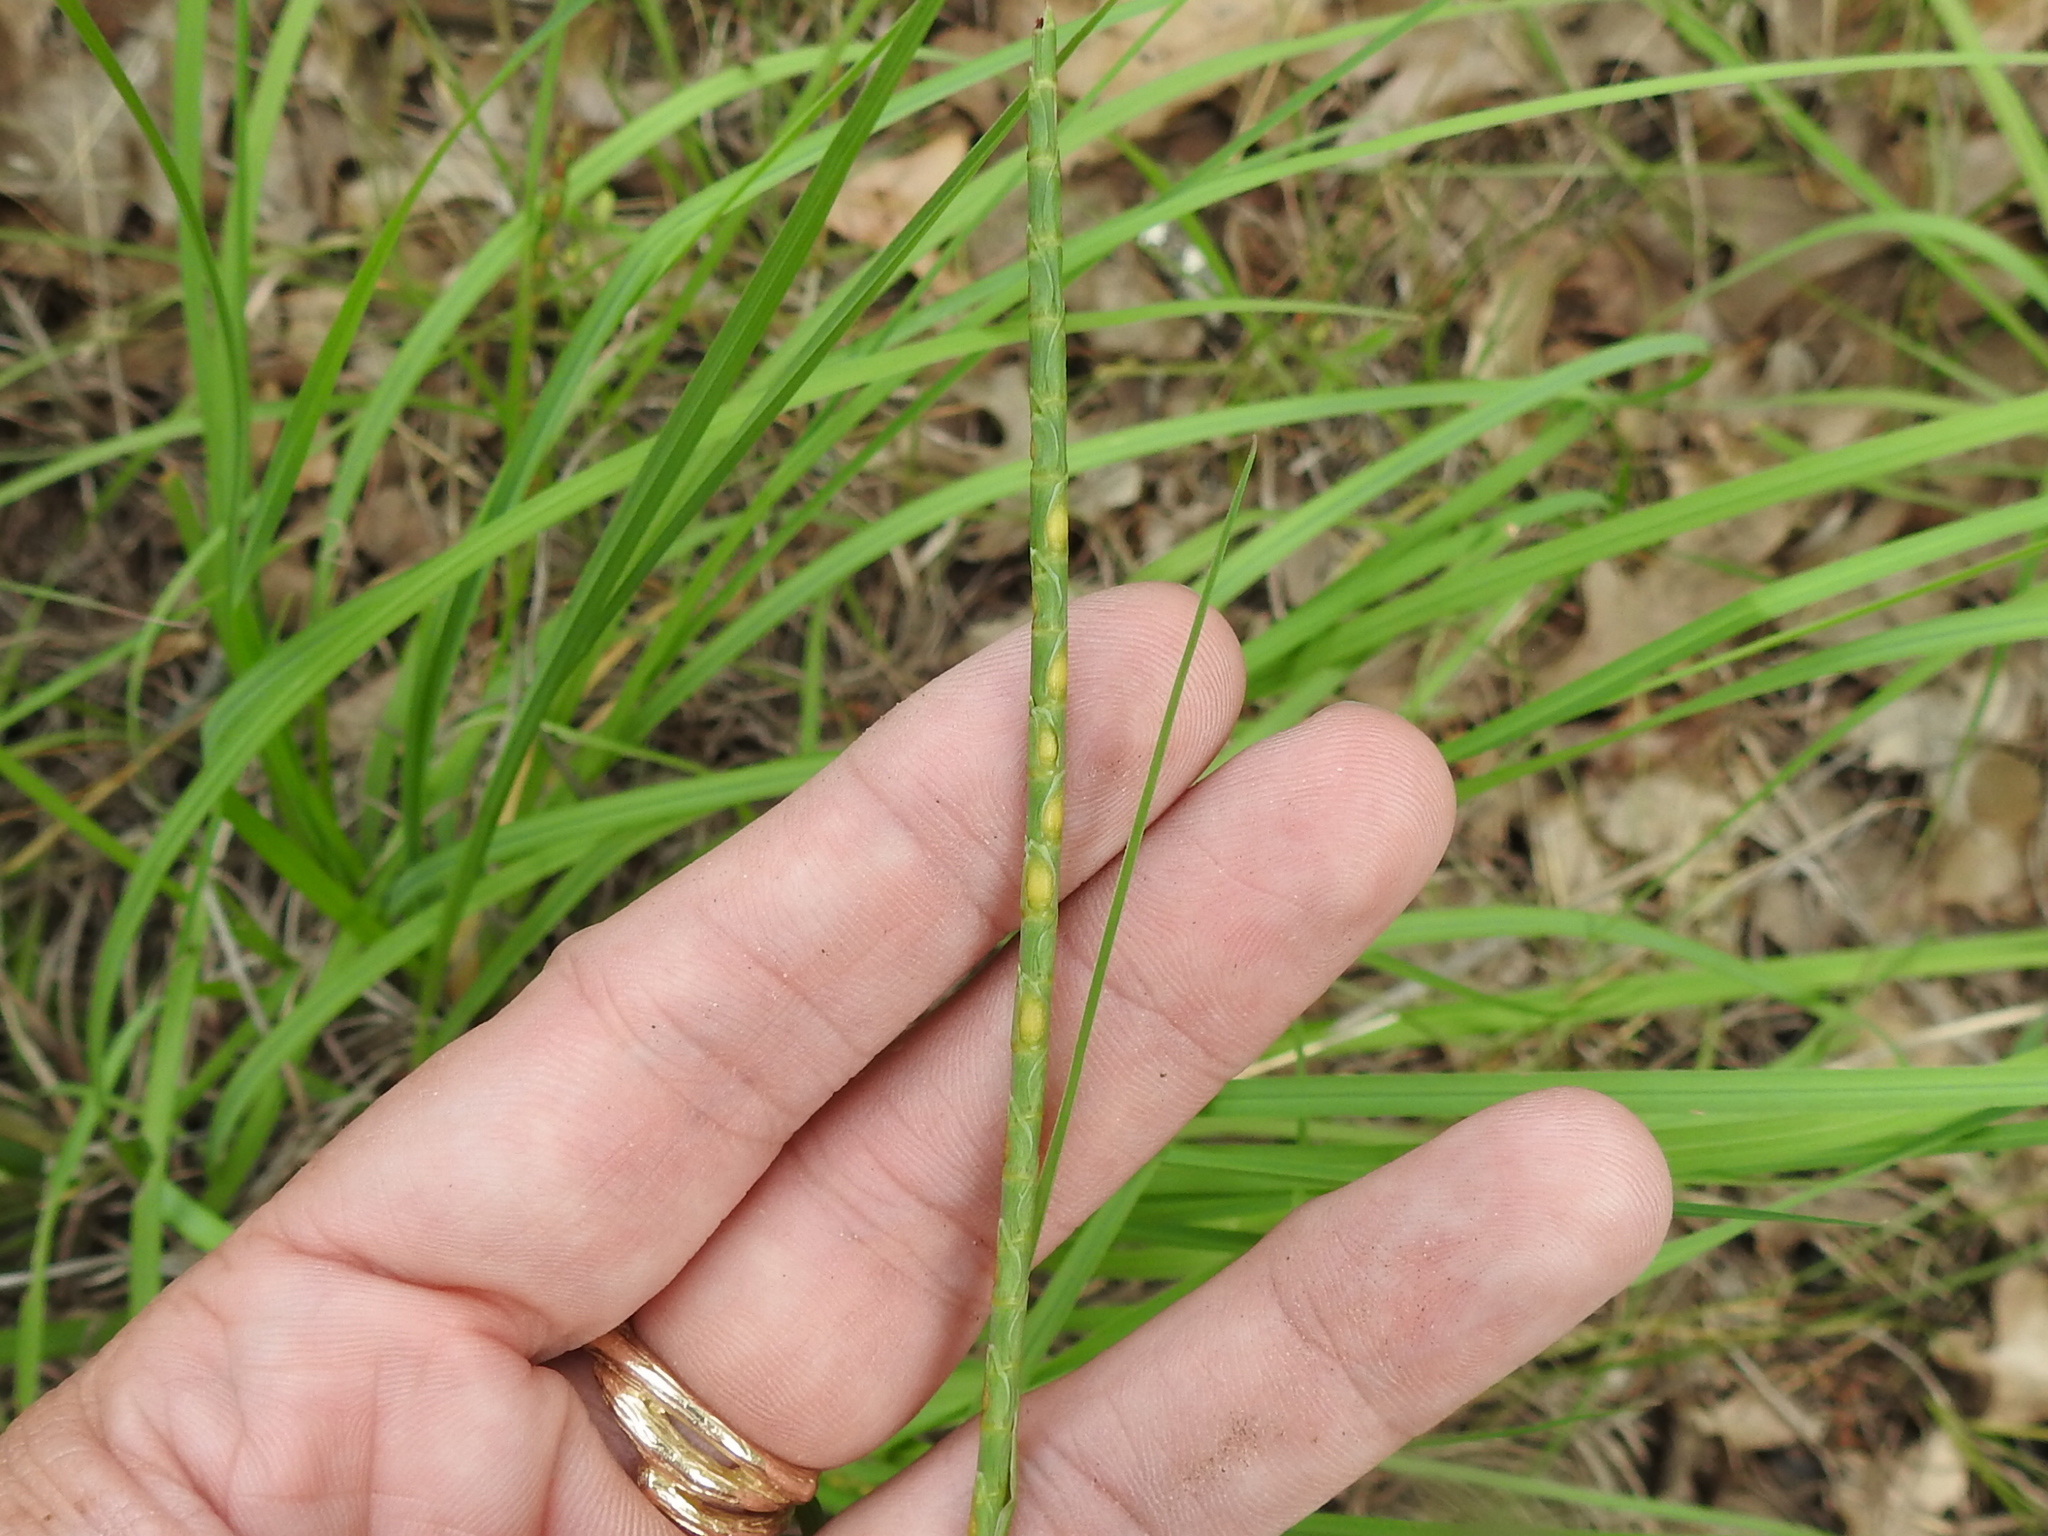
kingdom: Plantae
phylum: Tracheophyta
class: Liliopsida
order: Poales
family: Poaceae
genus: Rottboellia
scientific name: Rottboellia campestris
